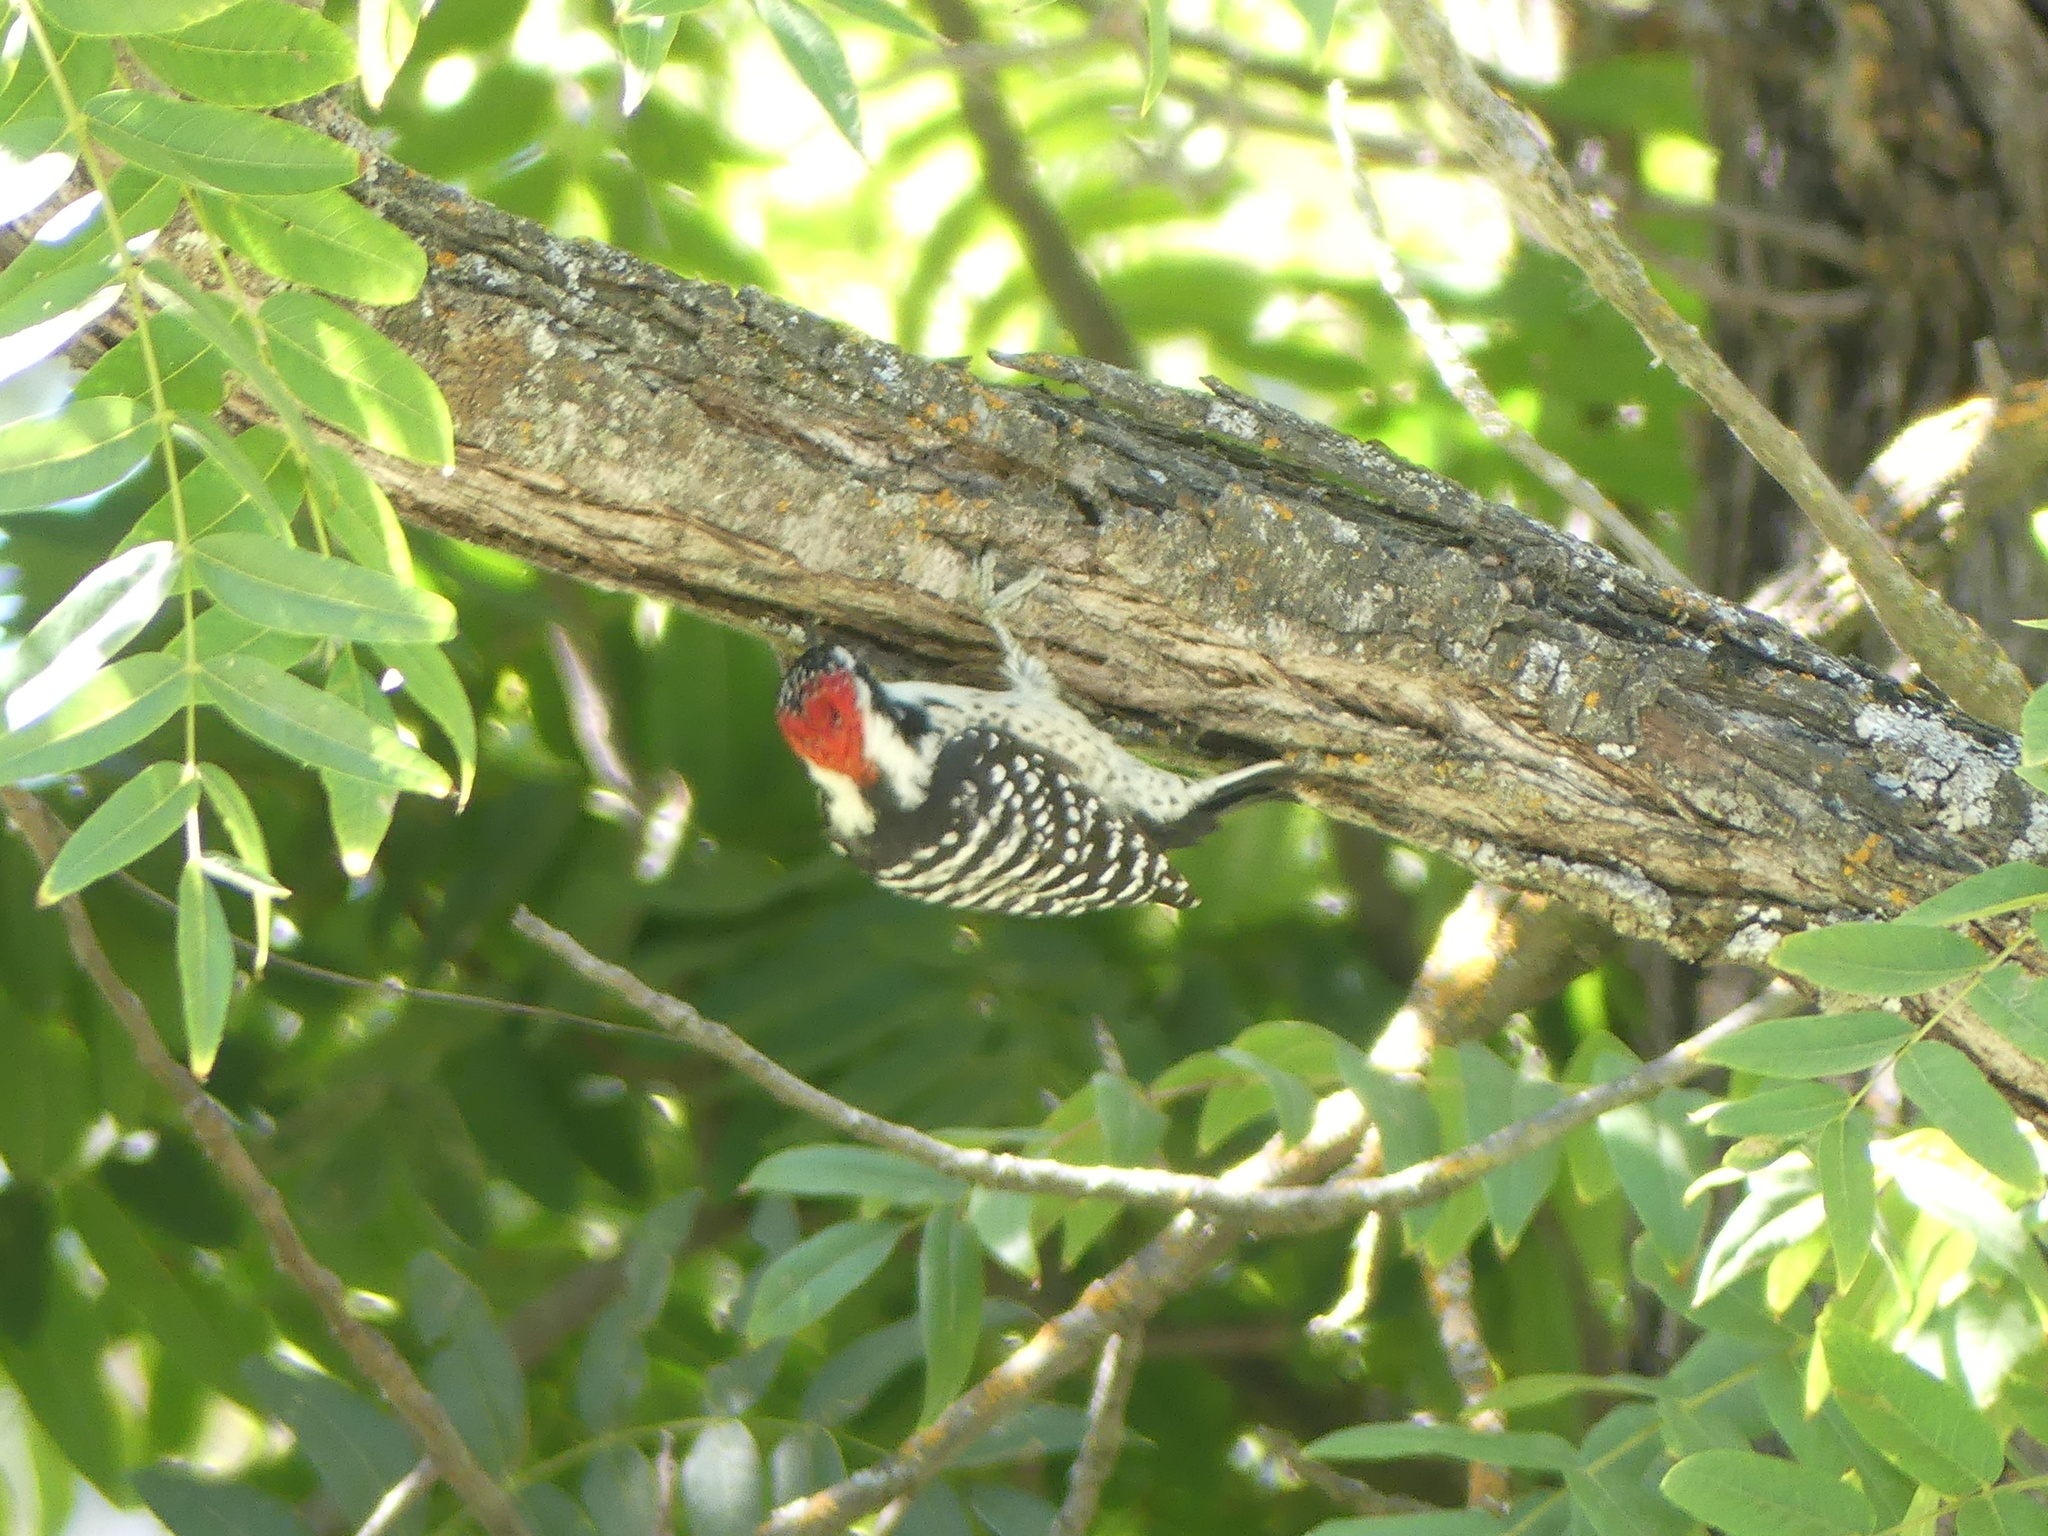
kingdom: Animalia
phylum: Chordata
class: Aves
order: Piciformes
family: Picidae
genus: Dryobates
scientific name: Dryobates nuttallii
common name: Nuttall's woodpecker
